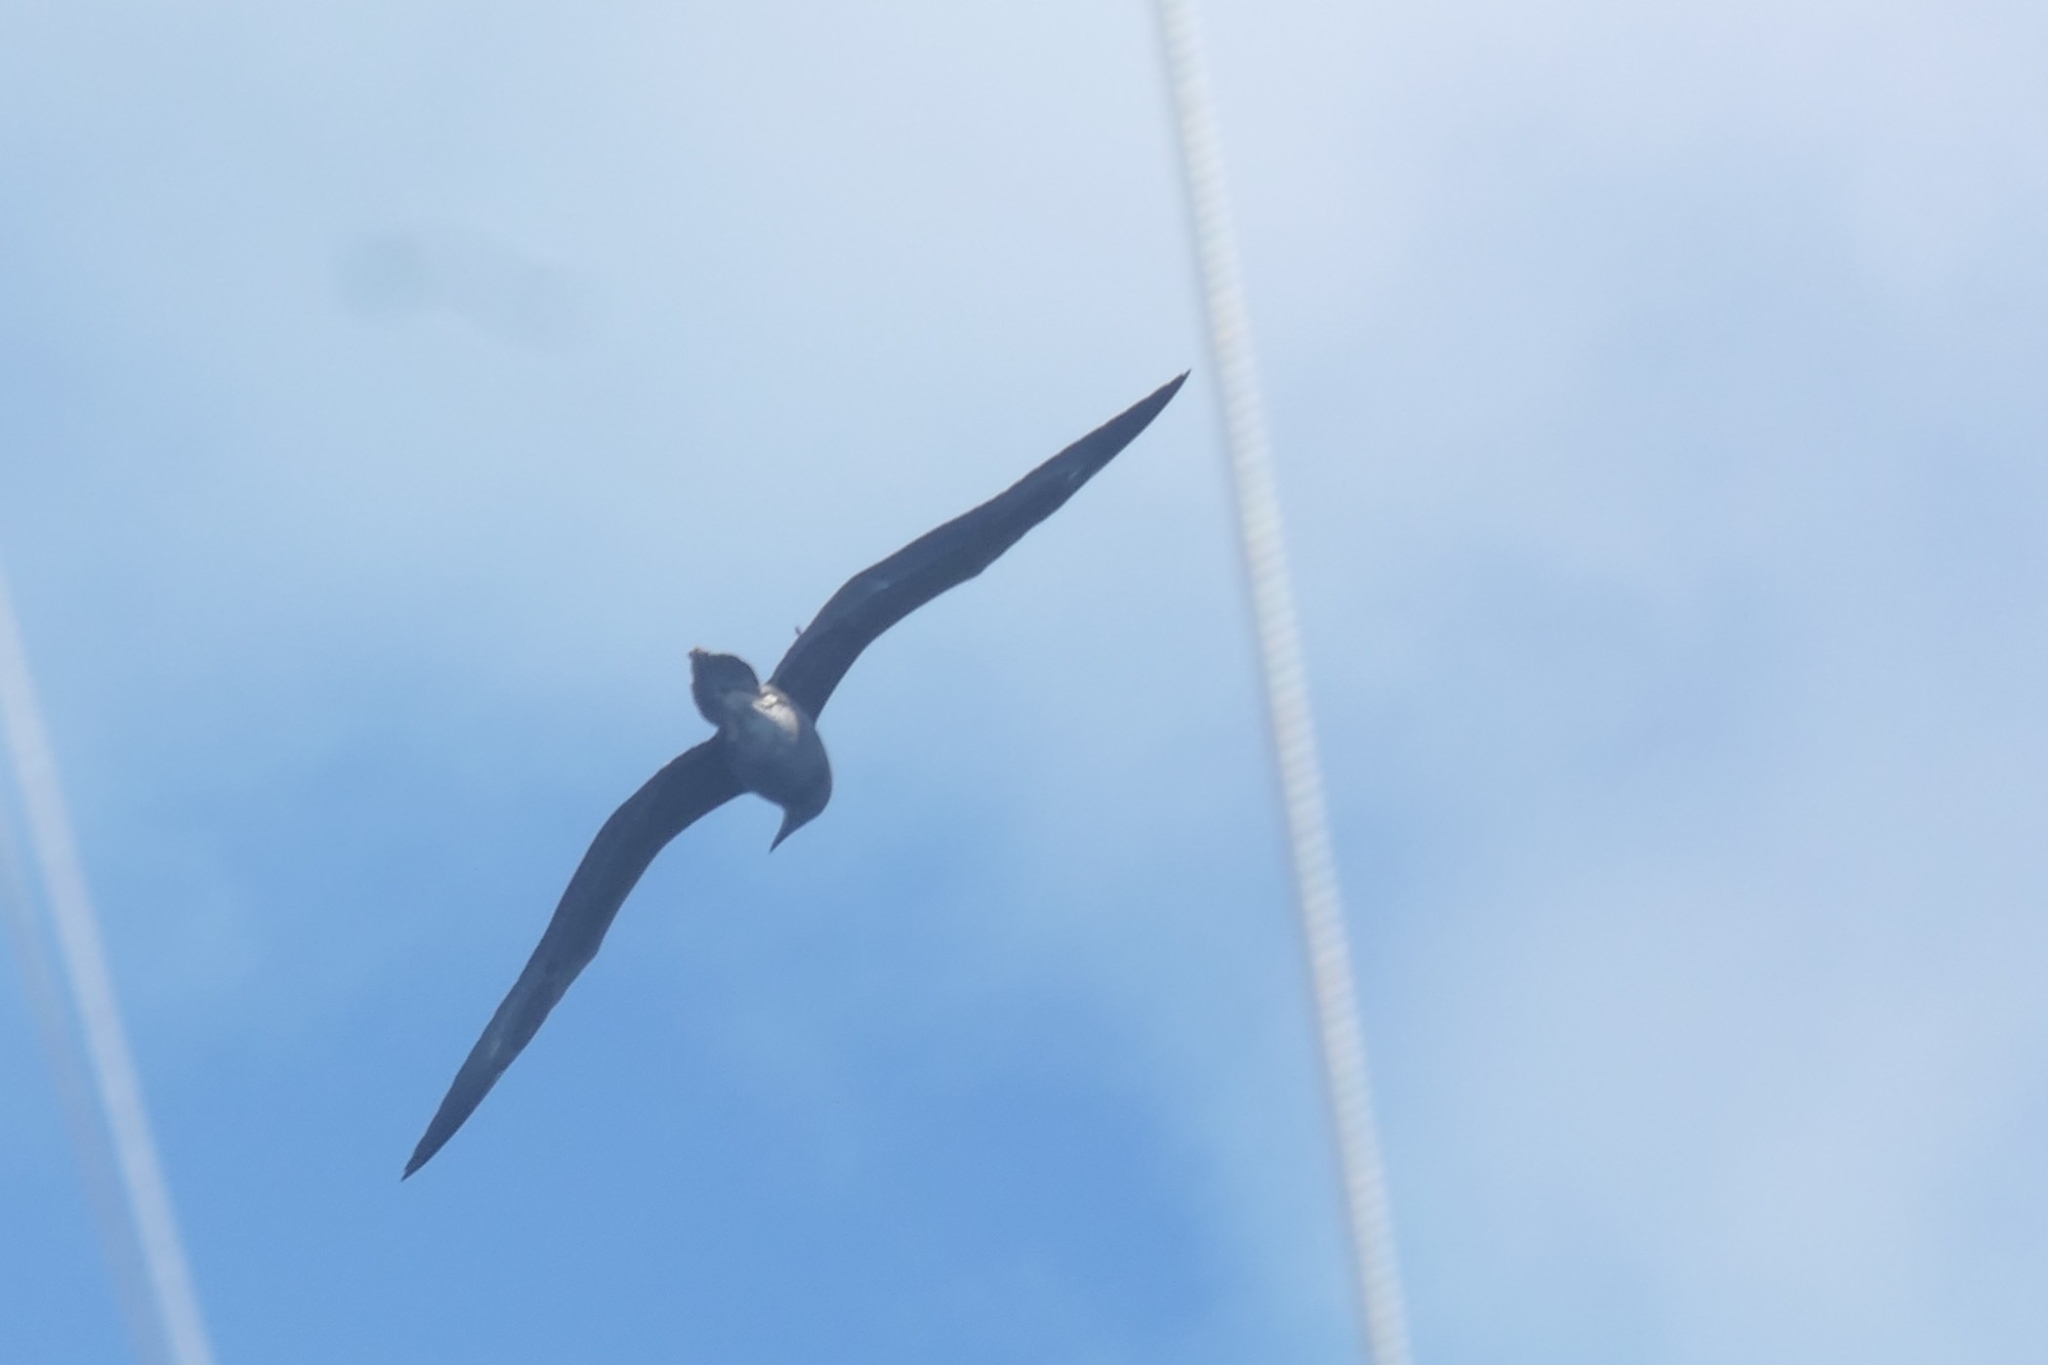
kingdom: Animalia
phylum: Chordata
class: Aves
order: Suliformes
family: Sulidae
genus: Sula
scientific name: Sula leucogaster
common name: Brown booby
